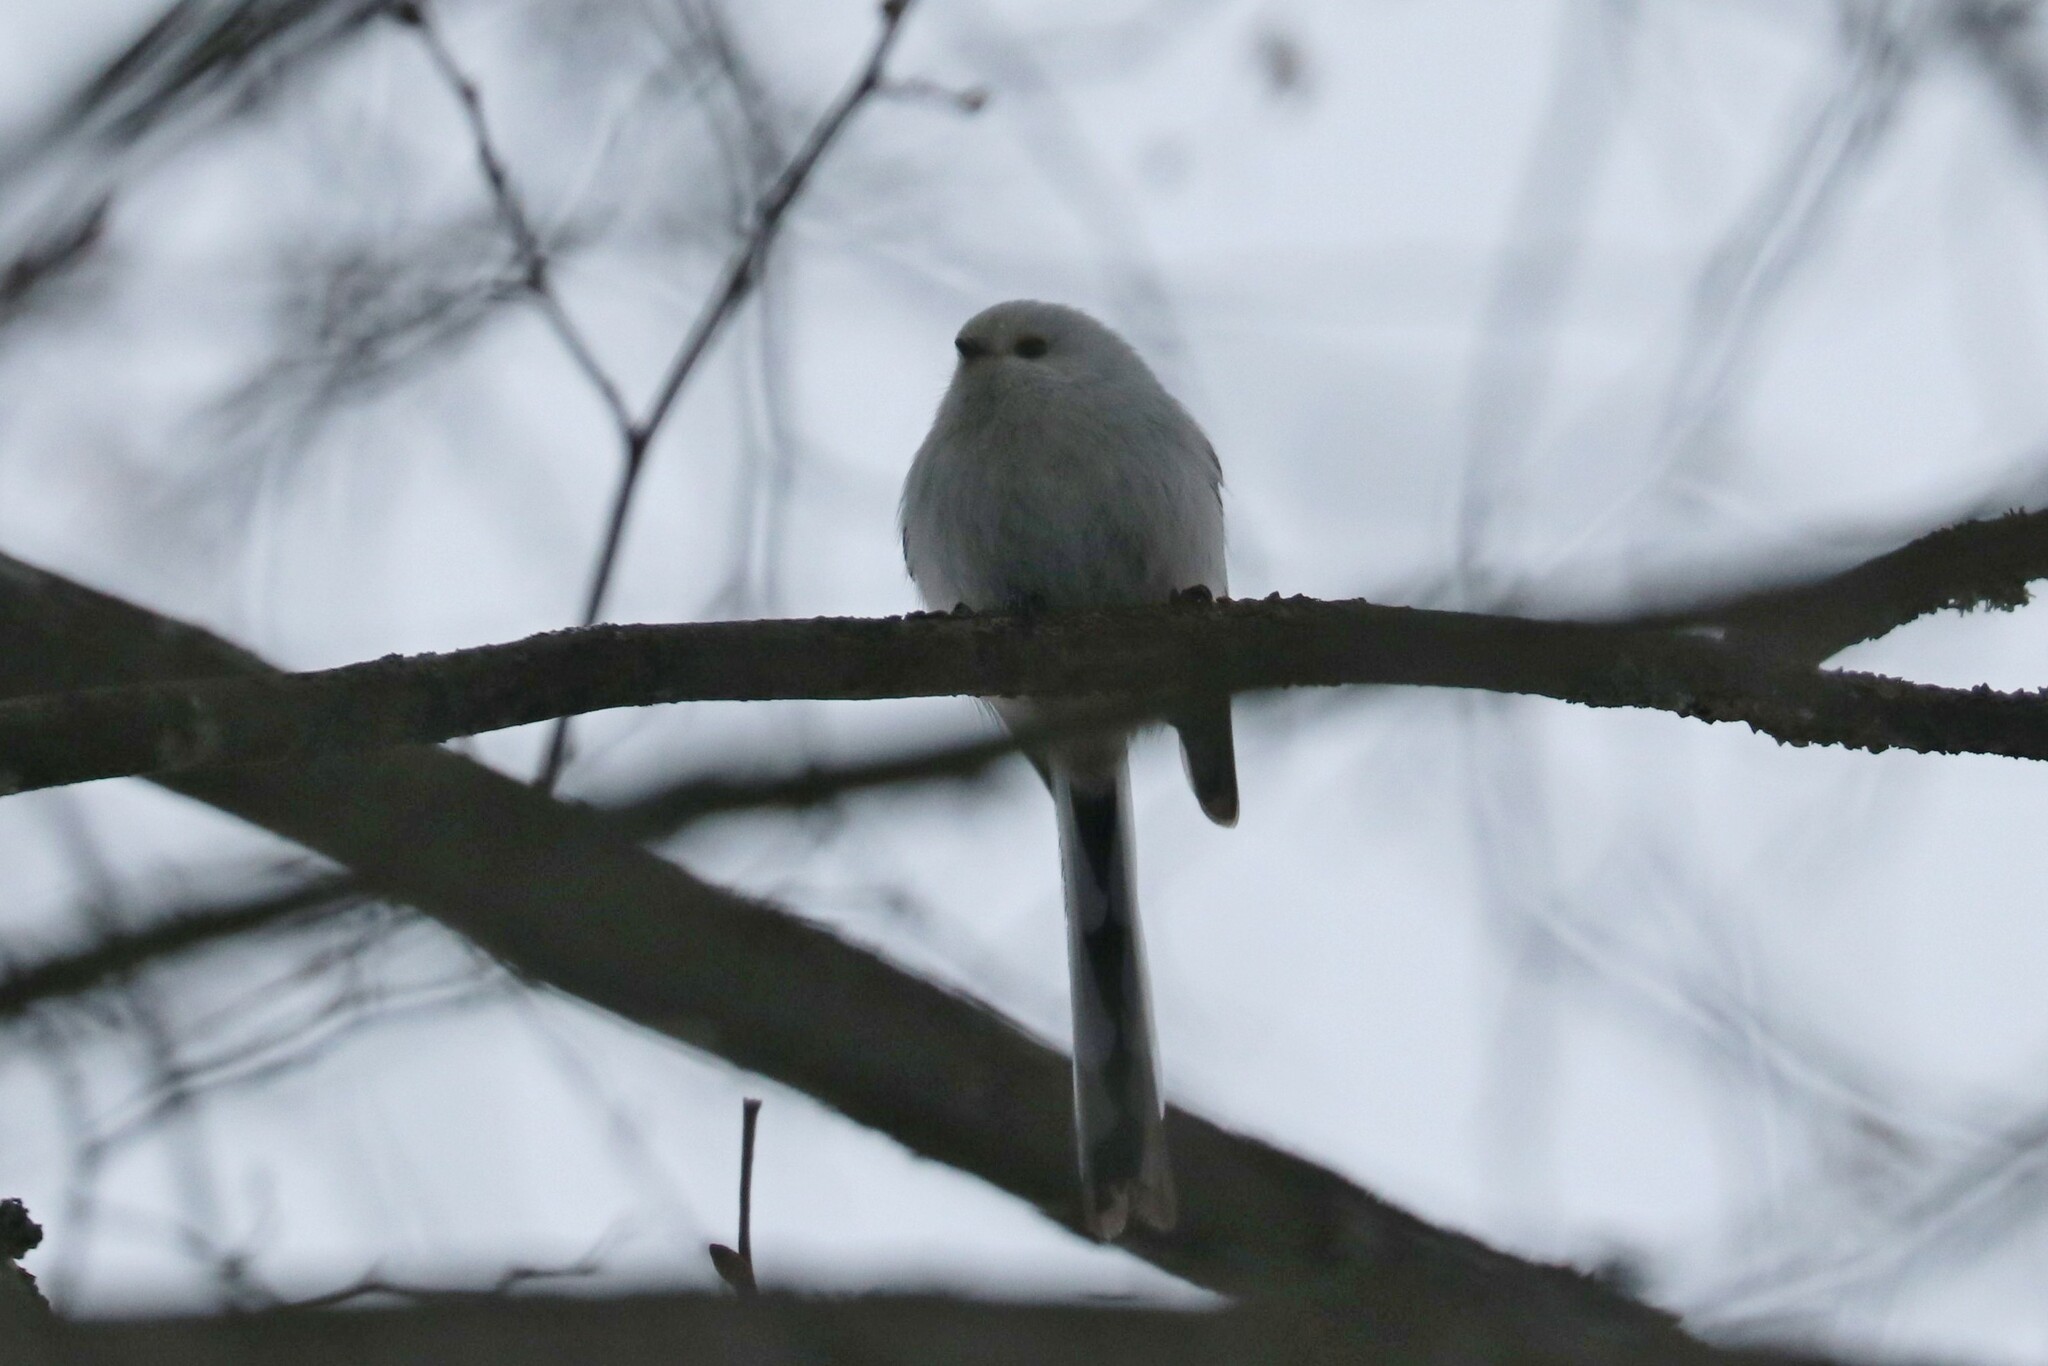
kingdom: Animalia
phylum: Chordata
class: Aves
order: Passeriformes
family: Aegithalidae
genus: Aegithalos
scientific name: Aegithalos caudatus
